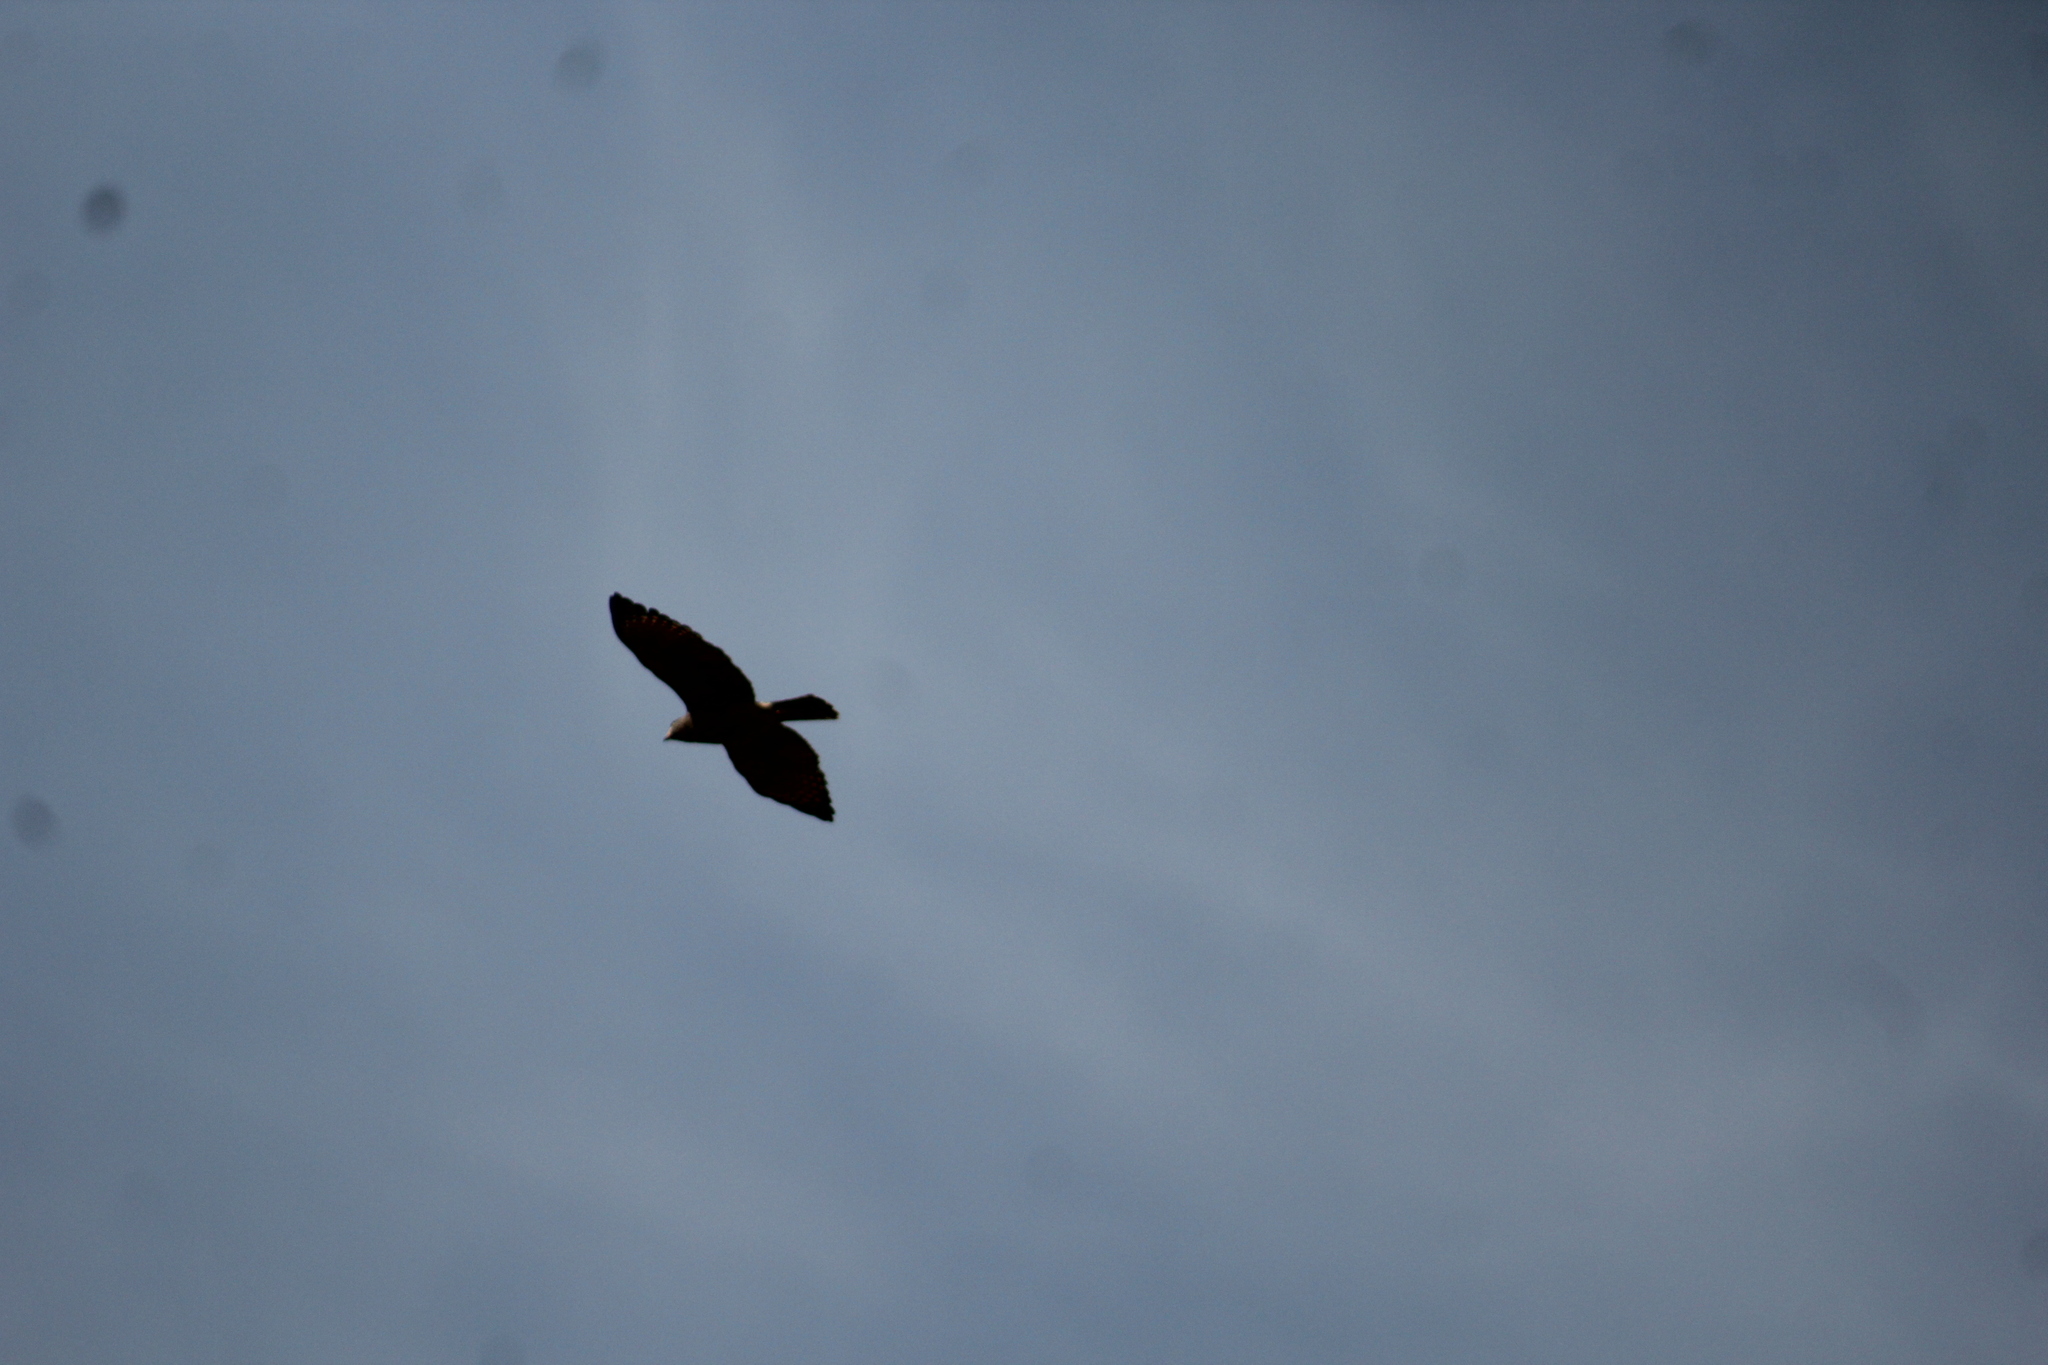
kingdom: Animalia
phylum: Chordata
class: Aves
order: Accipitriformes
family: Accipitridae
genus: Rupornis
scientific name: Rupornis magnirostris
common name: Roadside hawk
